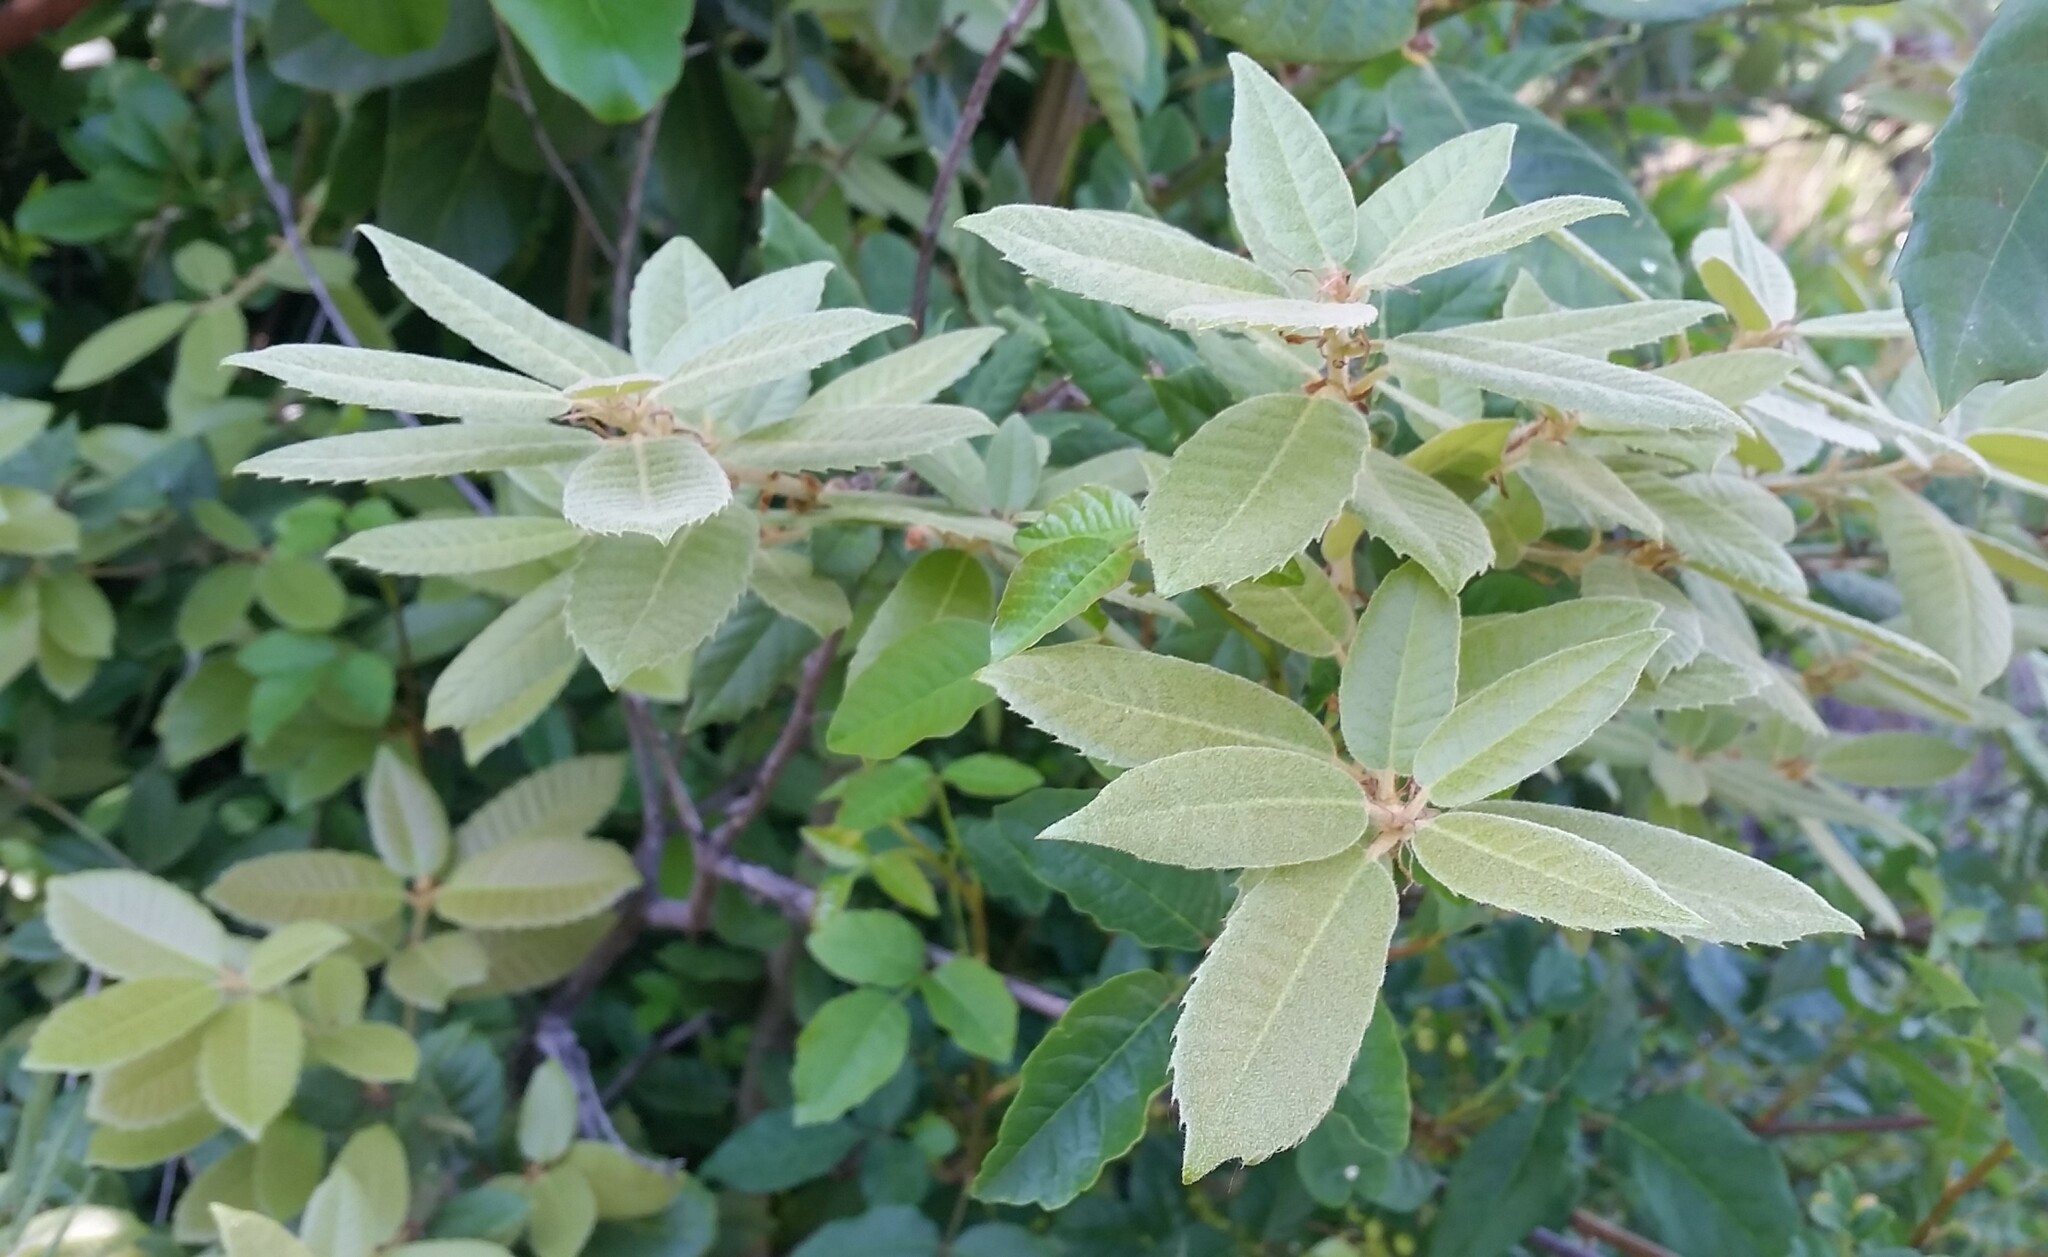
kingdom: Plantae
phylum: Tracheophyta
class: Magnoliopsida
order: Fagales
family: Fagaceae
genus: Notholithocarpus
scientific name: Notholithocarpus densiflorus
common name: Tan bark oak
